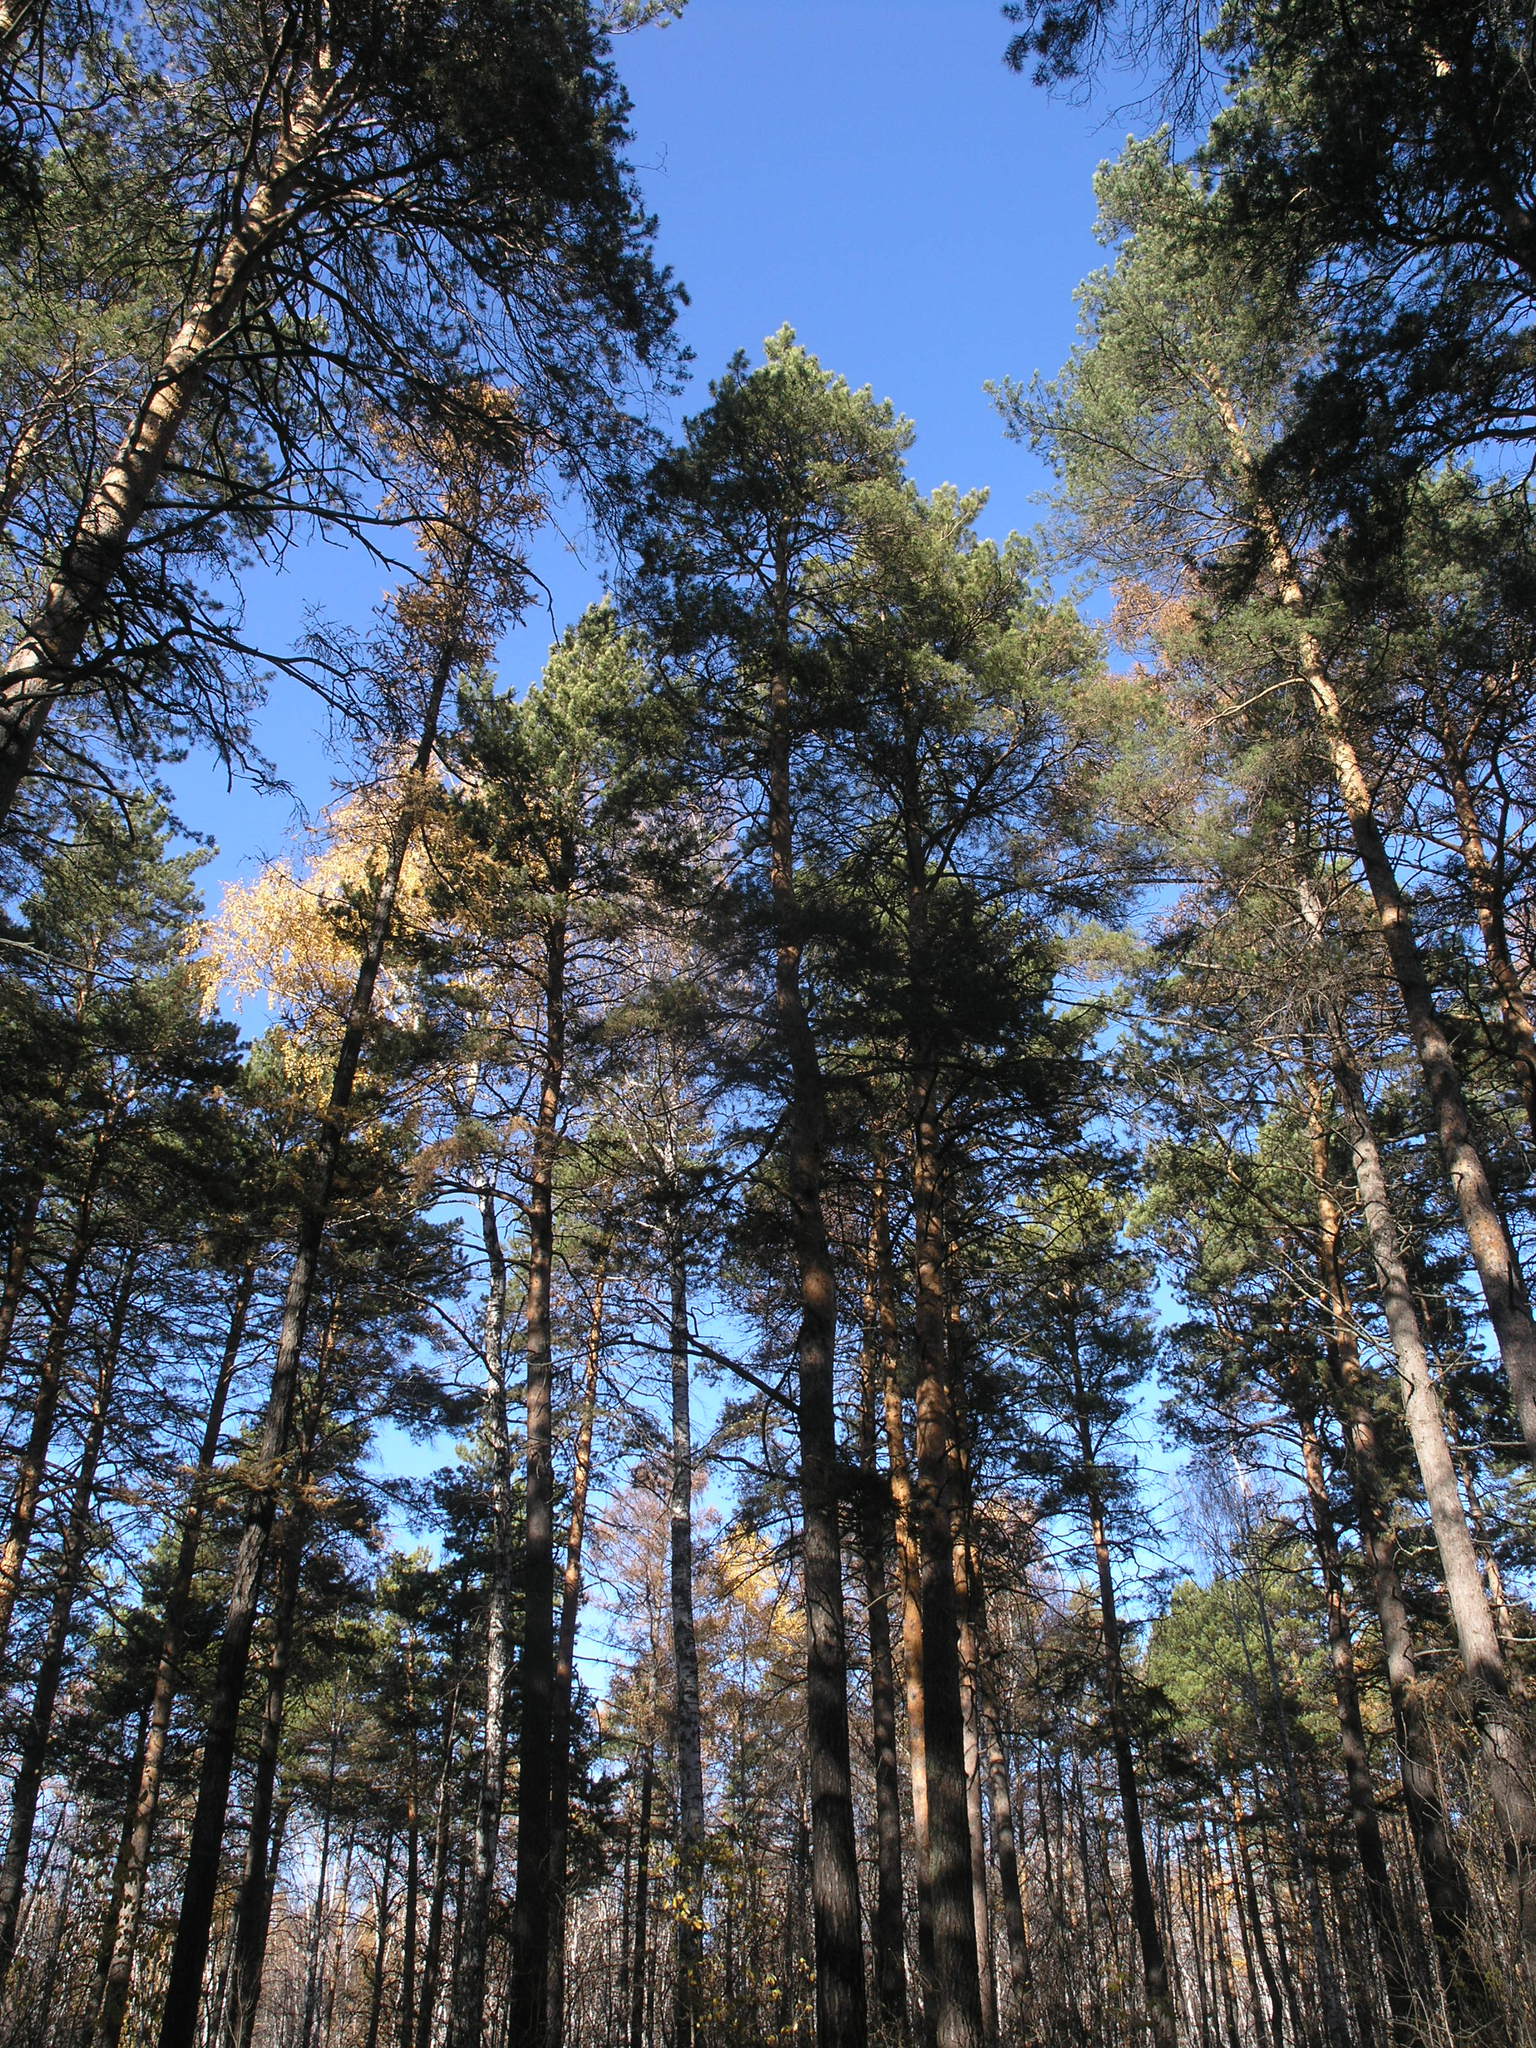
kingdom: Plantae
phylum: Tracheophyta
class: Pinopsida
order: Pinales
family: Pinaceae
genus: Pinus
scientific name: Pinus sylvestris
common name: Scots pine
